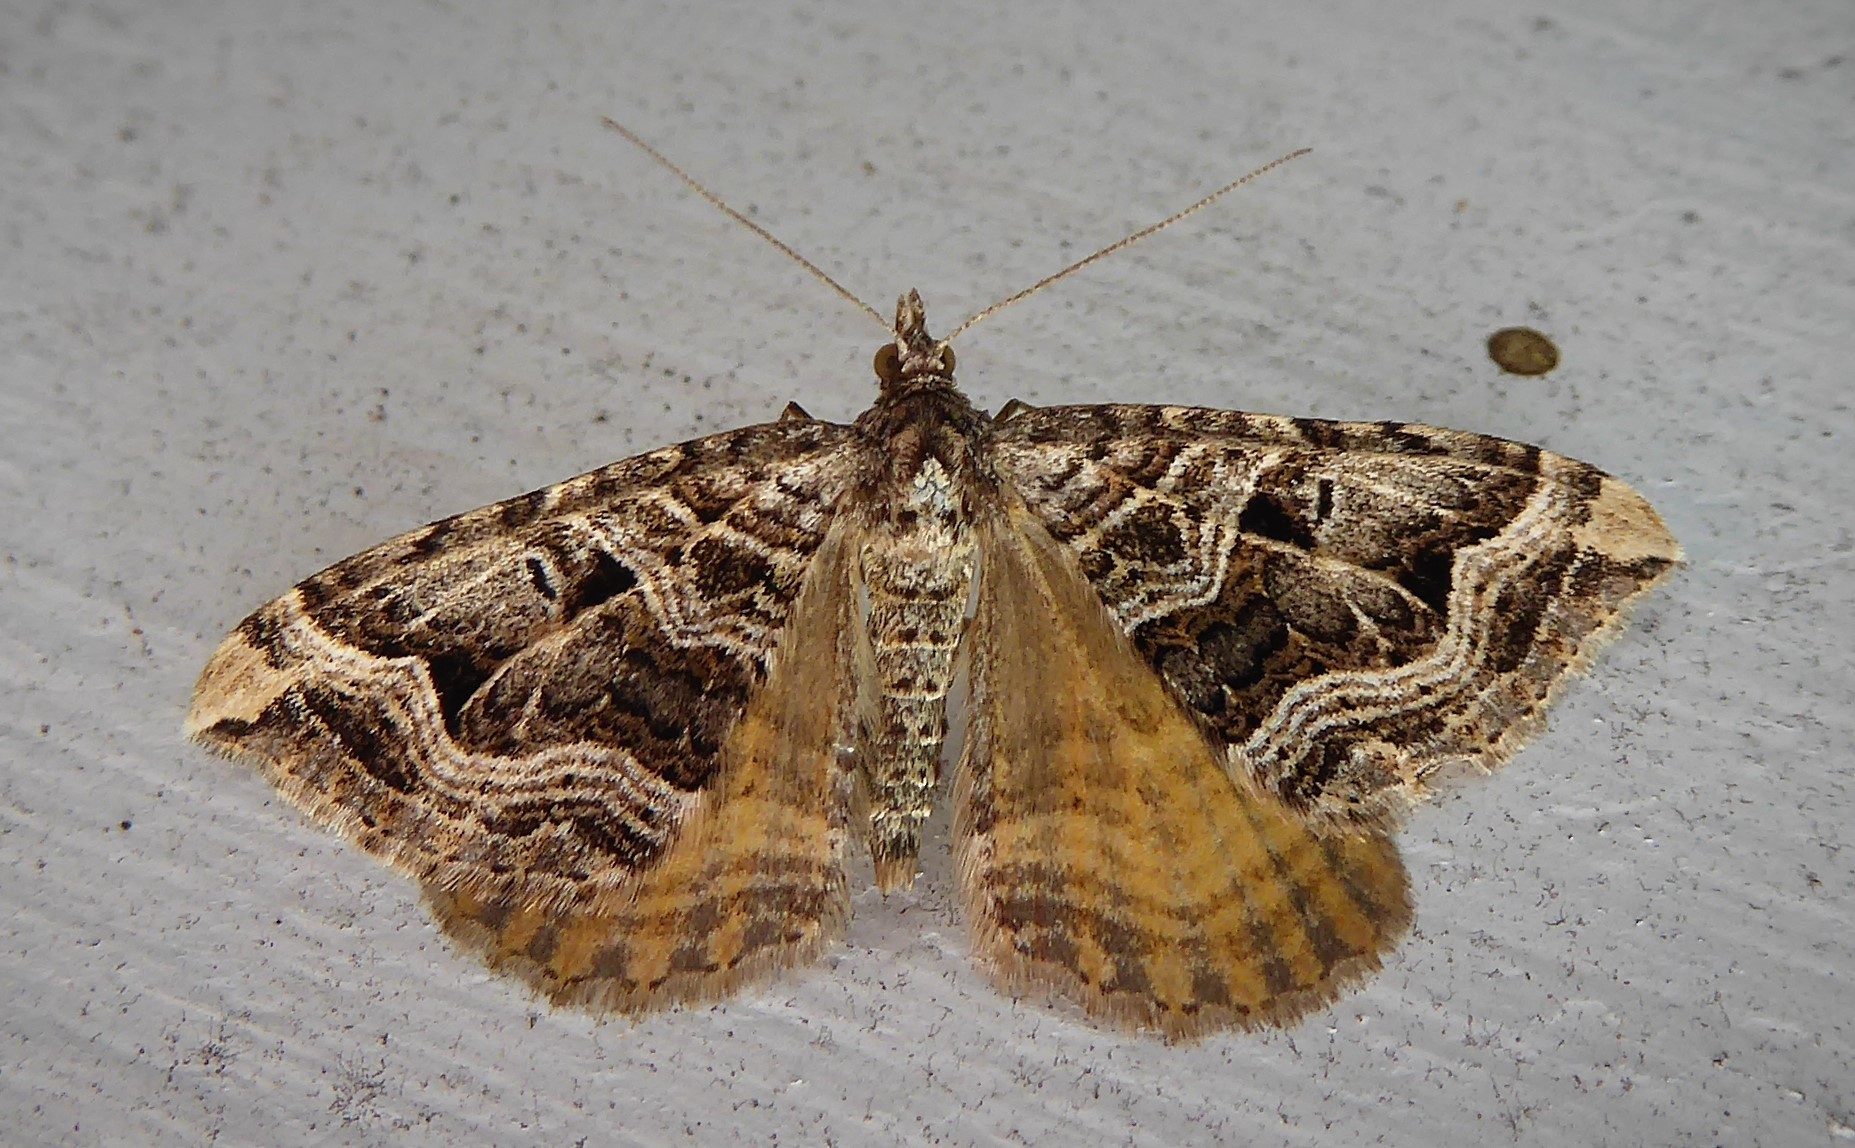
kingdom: Animalia
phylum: Arthropoda
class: Insecta
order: Lepidoptera
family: Geometridae
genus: Xanthorhoe
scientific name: Xanthorhoe semifissata
